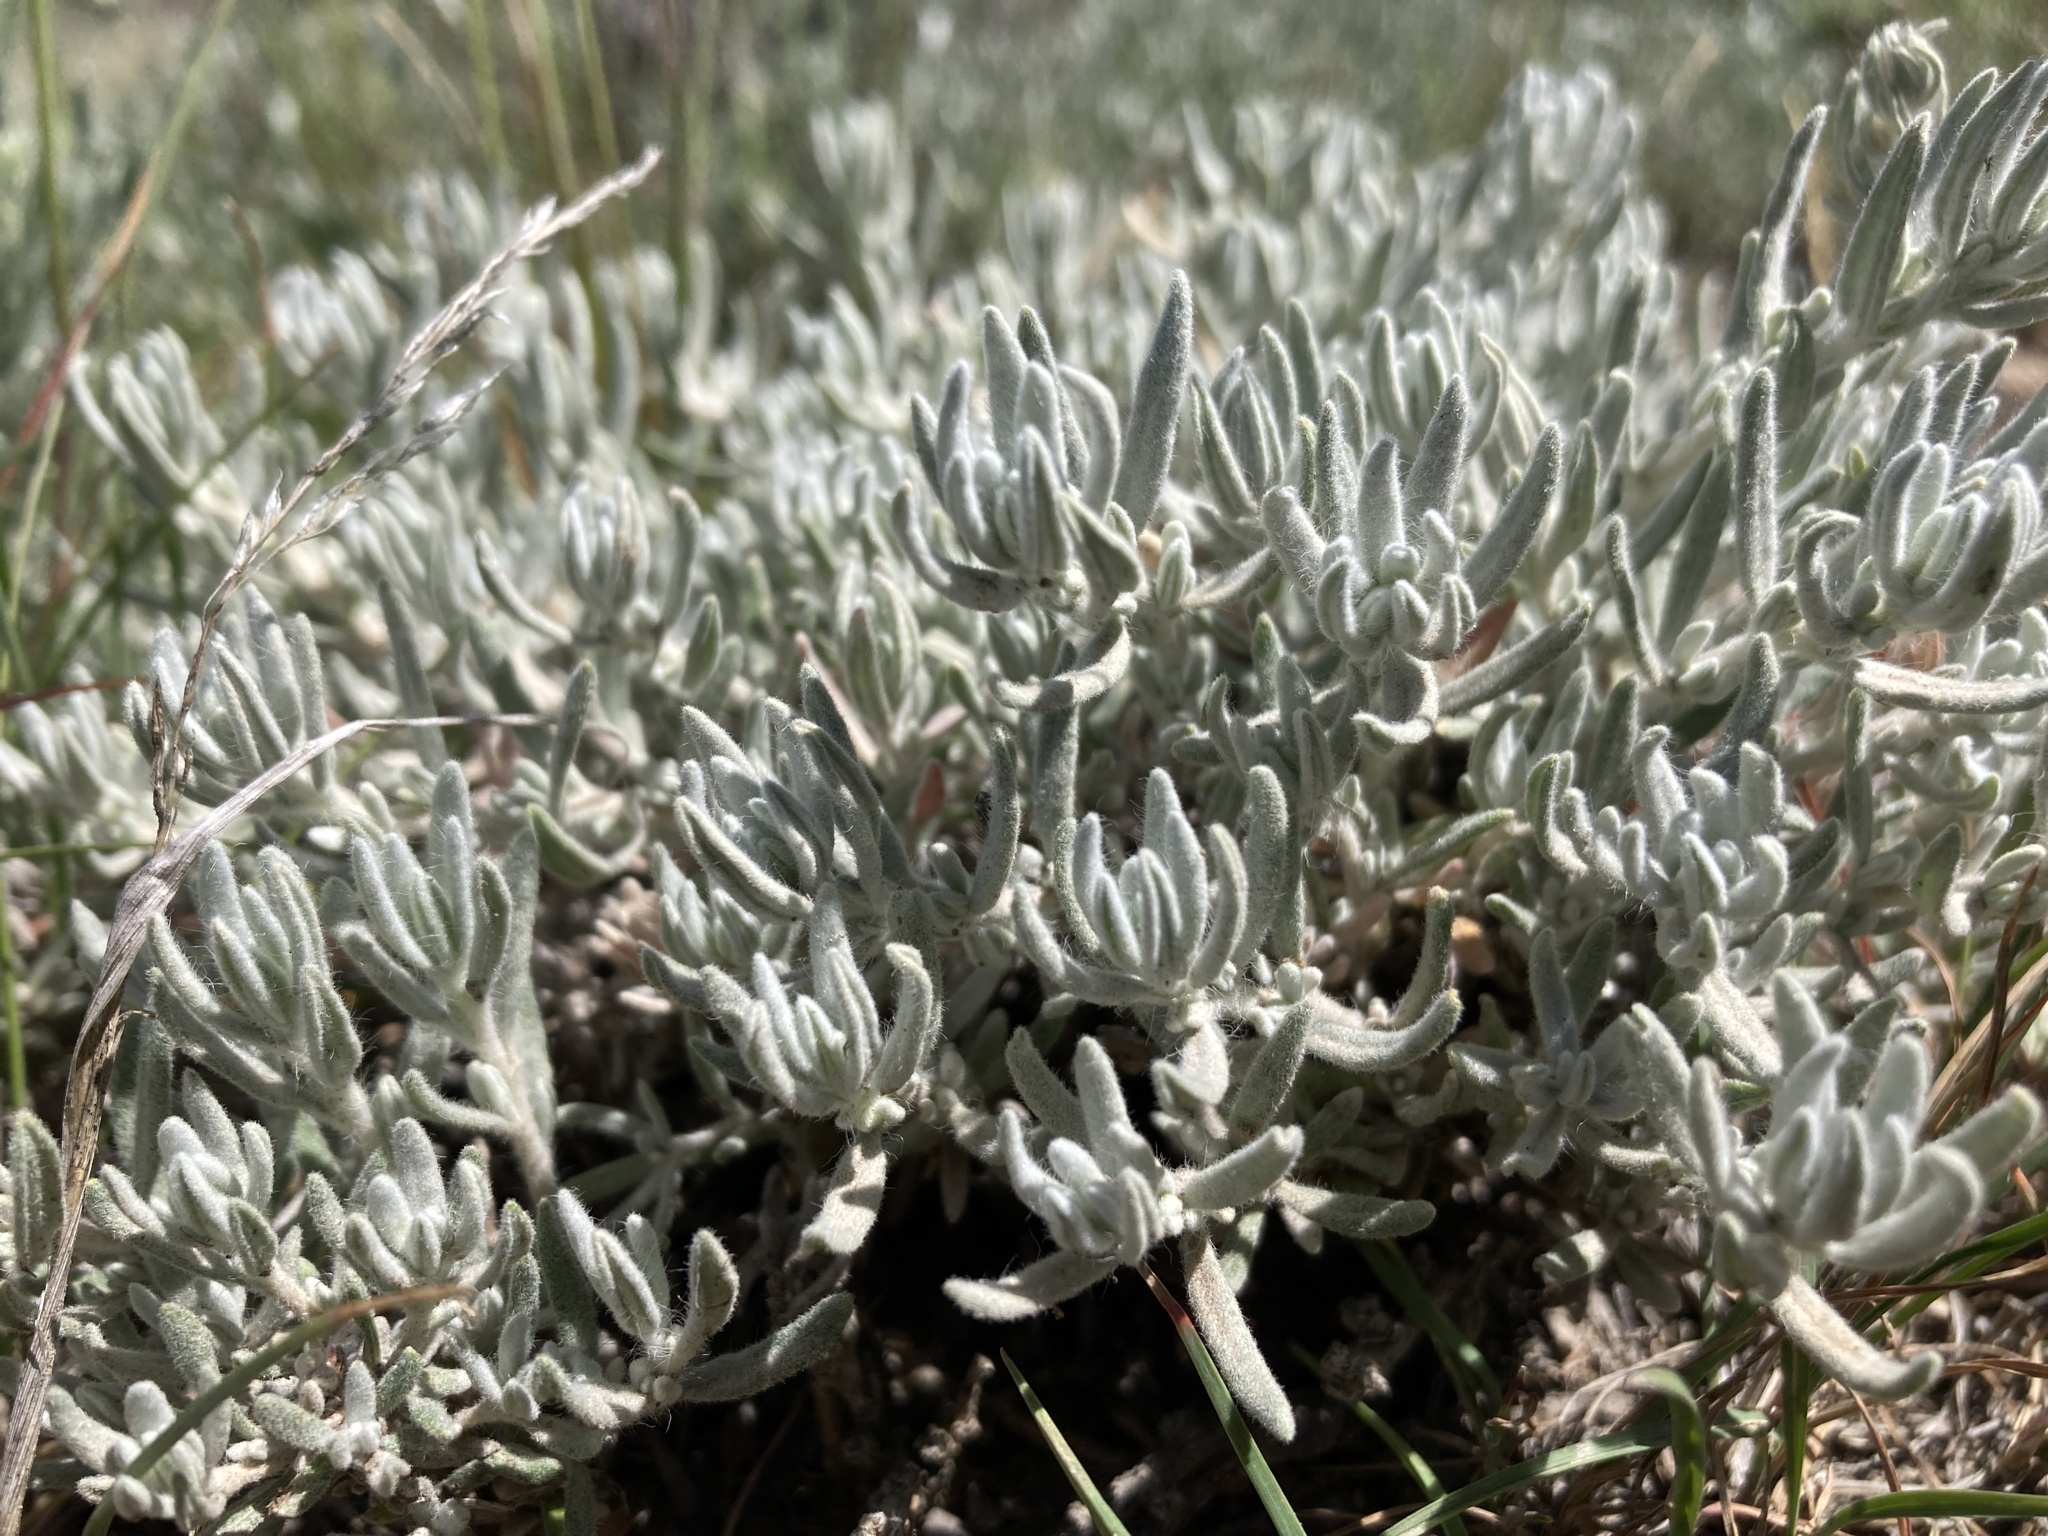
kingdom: Plantae
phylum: Tracheophyta
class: Magnoliopsida
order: Caryophyllales
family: Amaranthaceae
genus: Krascheninnikovia
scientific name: Krascheninnikovia lanata
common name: Winterfat
